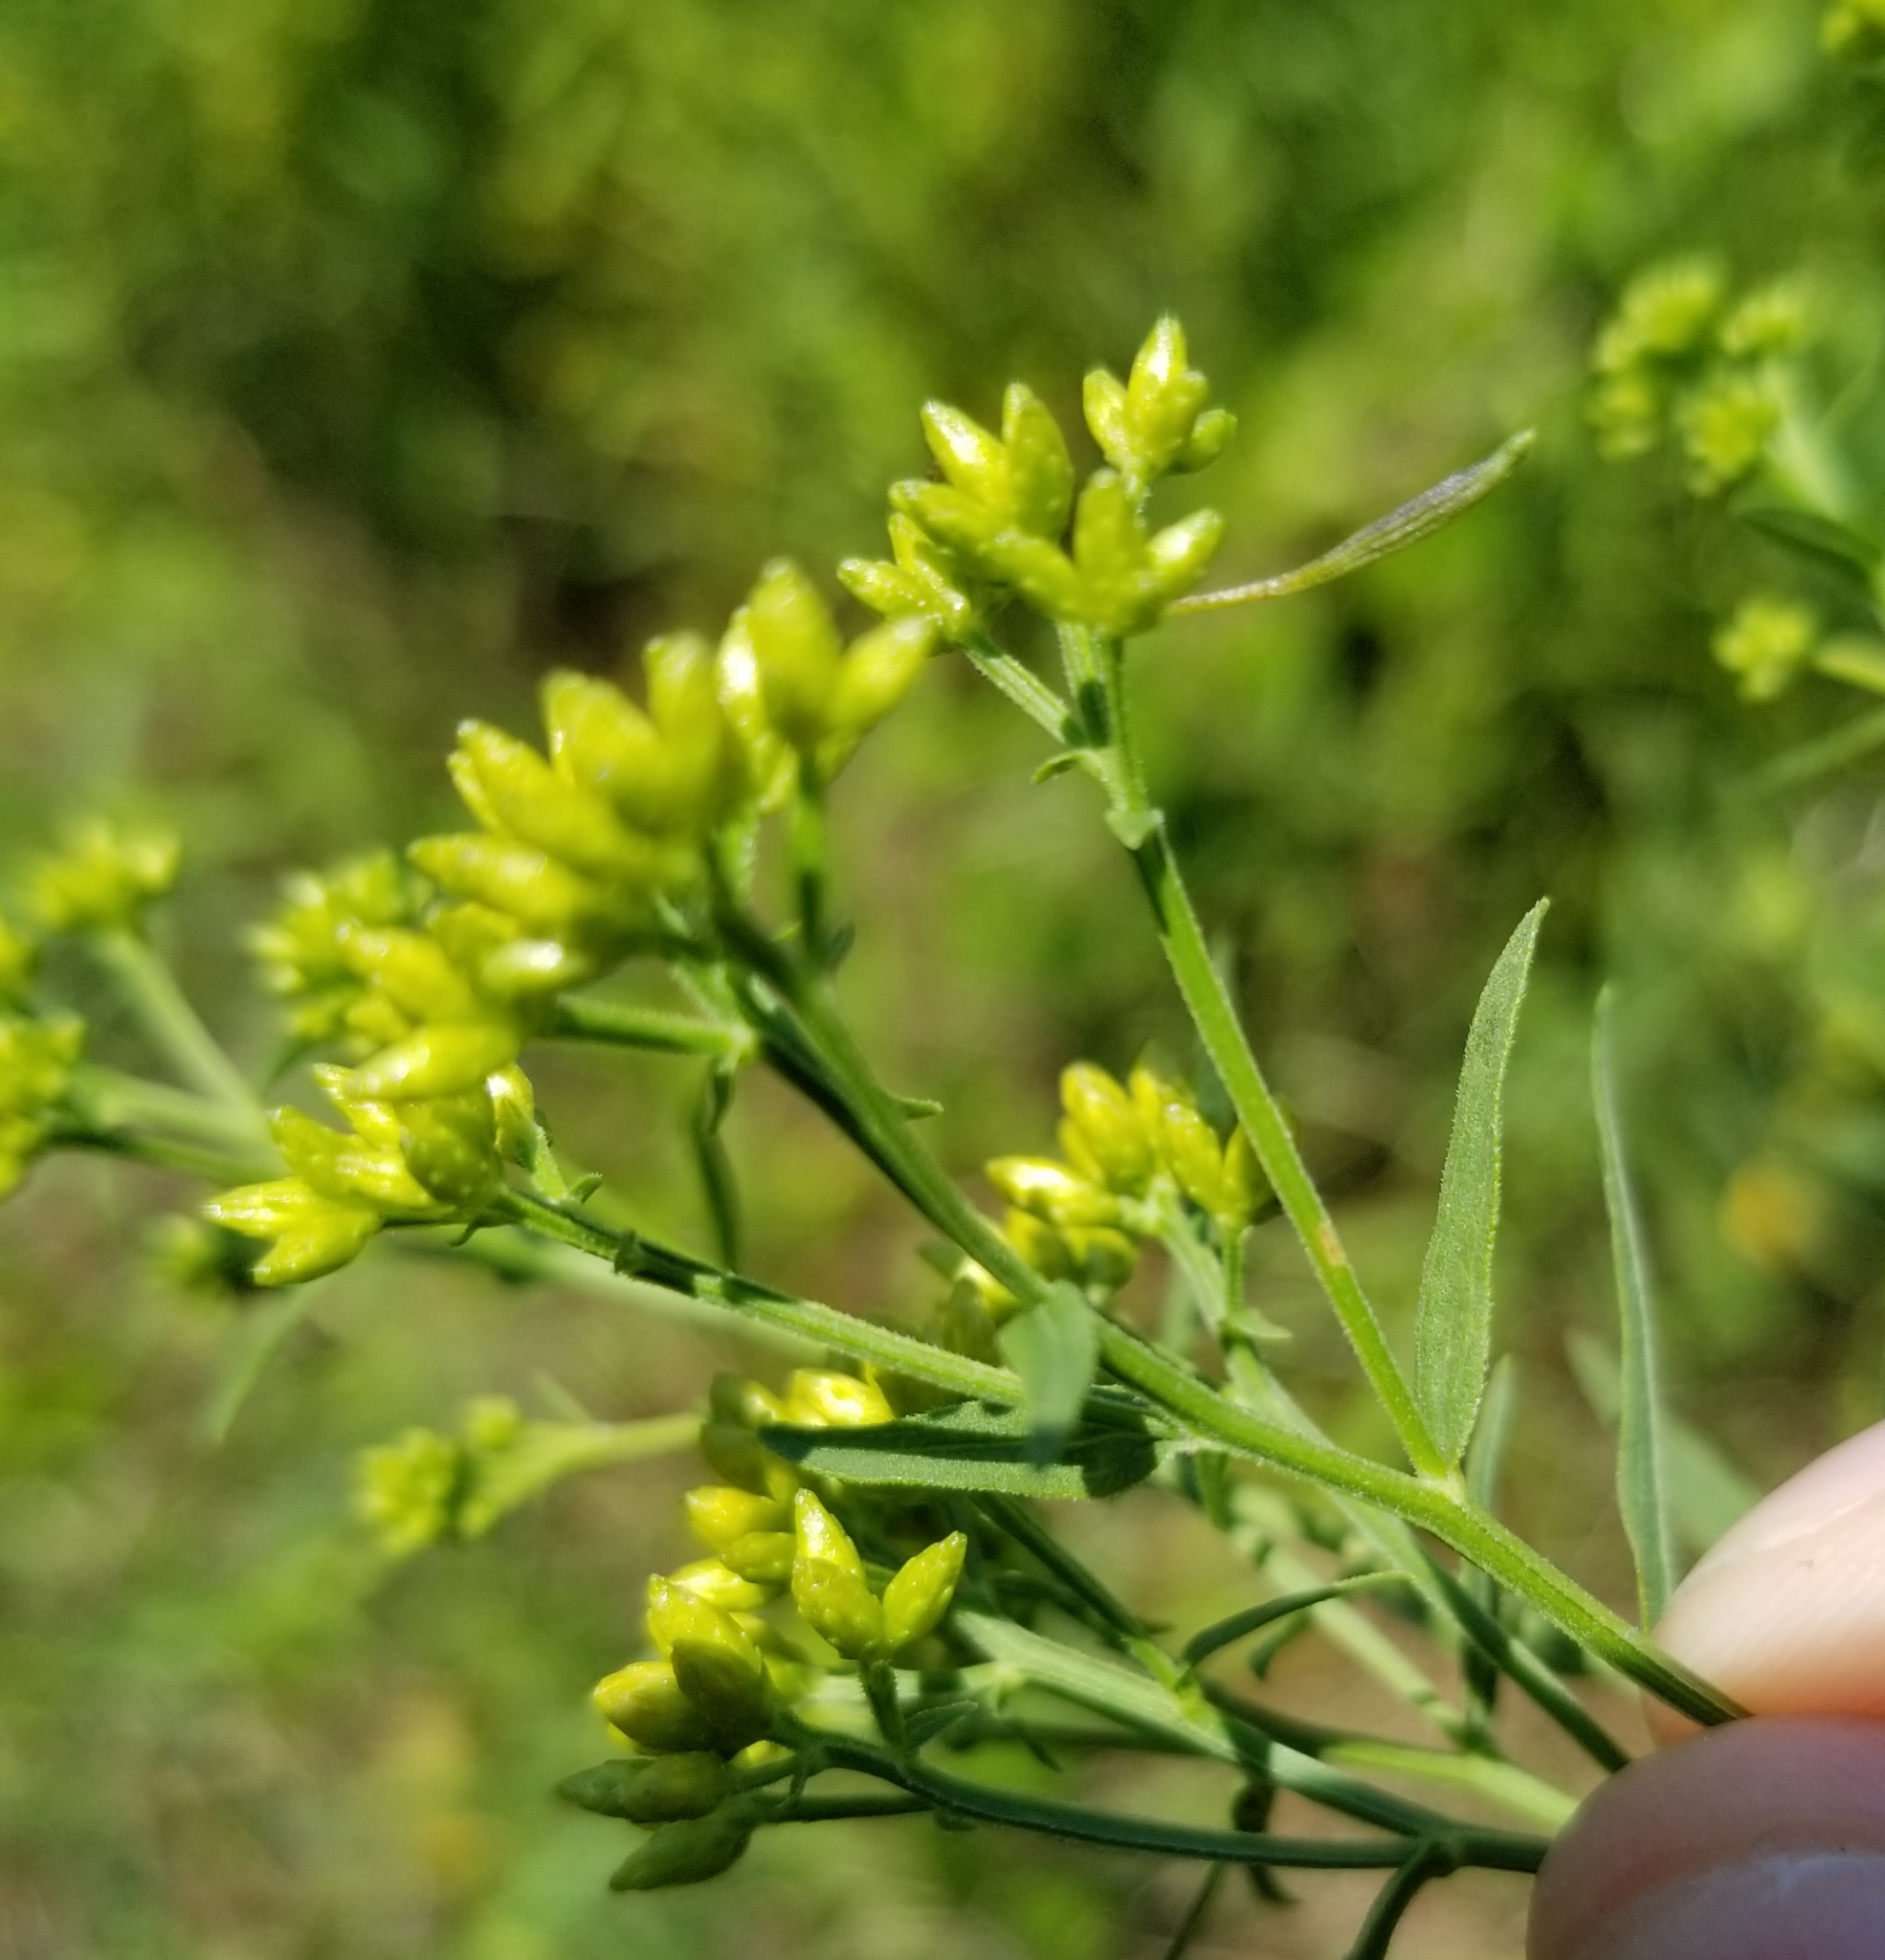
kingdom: Animalia
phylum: Arthropoda
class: Insecta
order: Diptera
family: Cecidomyiidae
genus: Rhopalomyia
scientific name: Rhopalomyia pedicellata
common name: Goldentop pedicellate gall midge
